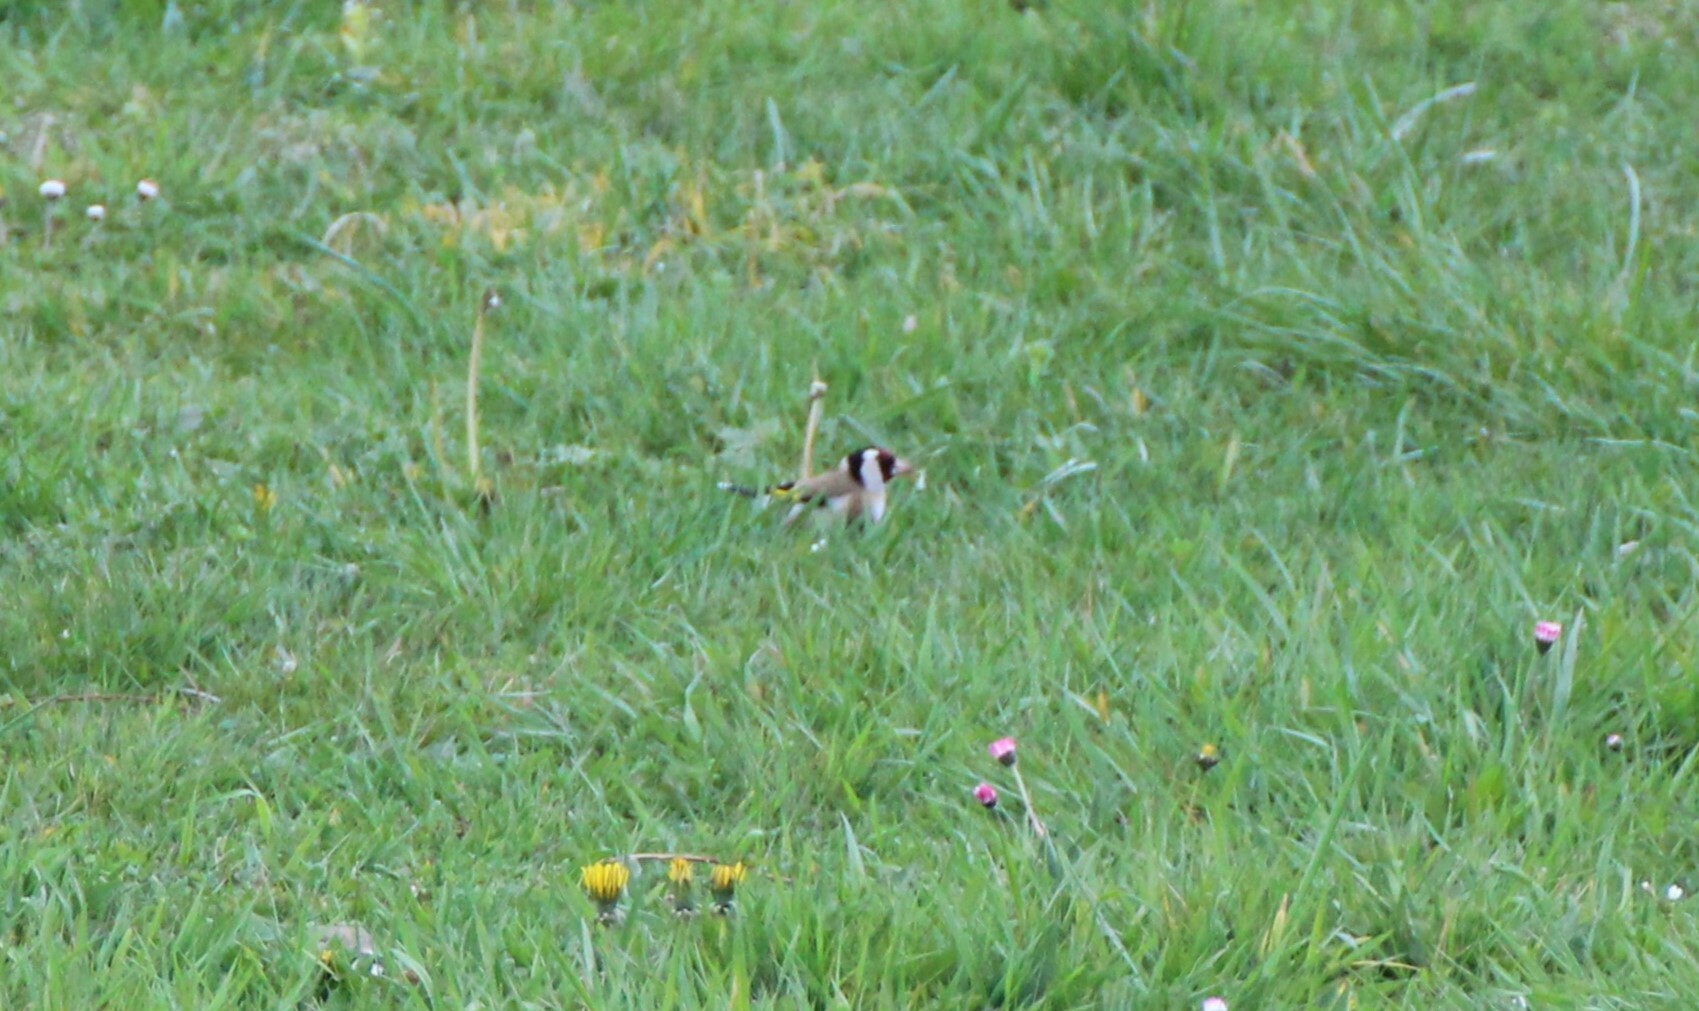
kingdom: Animalia
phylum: Chordata
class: Aves
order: Passeriformes
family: Fringillidae
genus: Carduelis
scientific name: Carduelis carduelis
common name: European goldfinch
